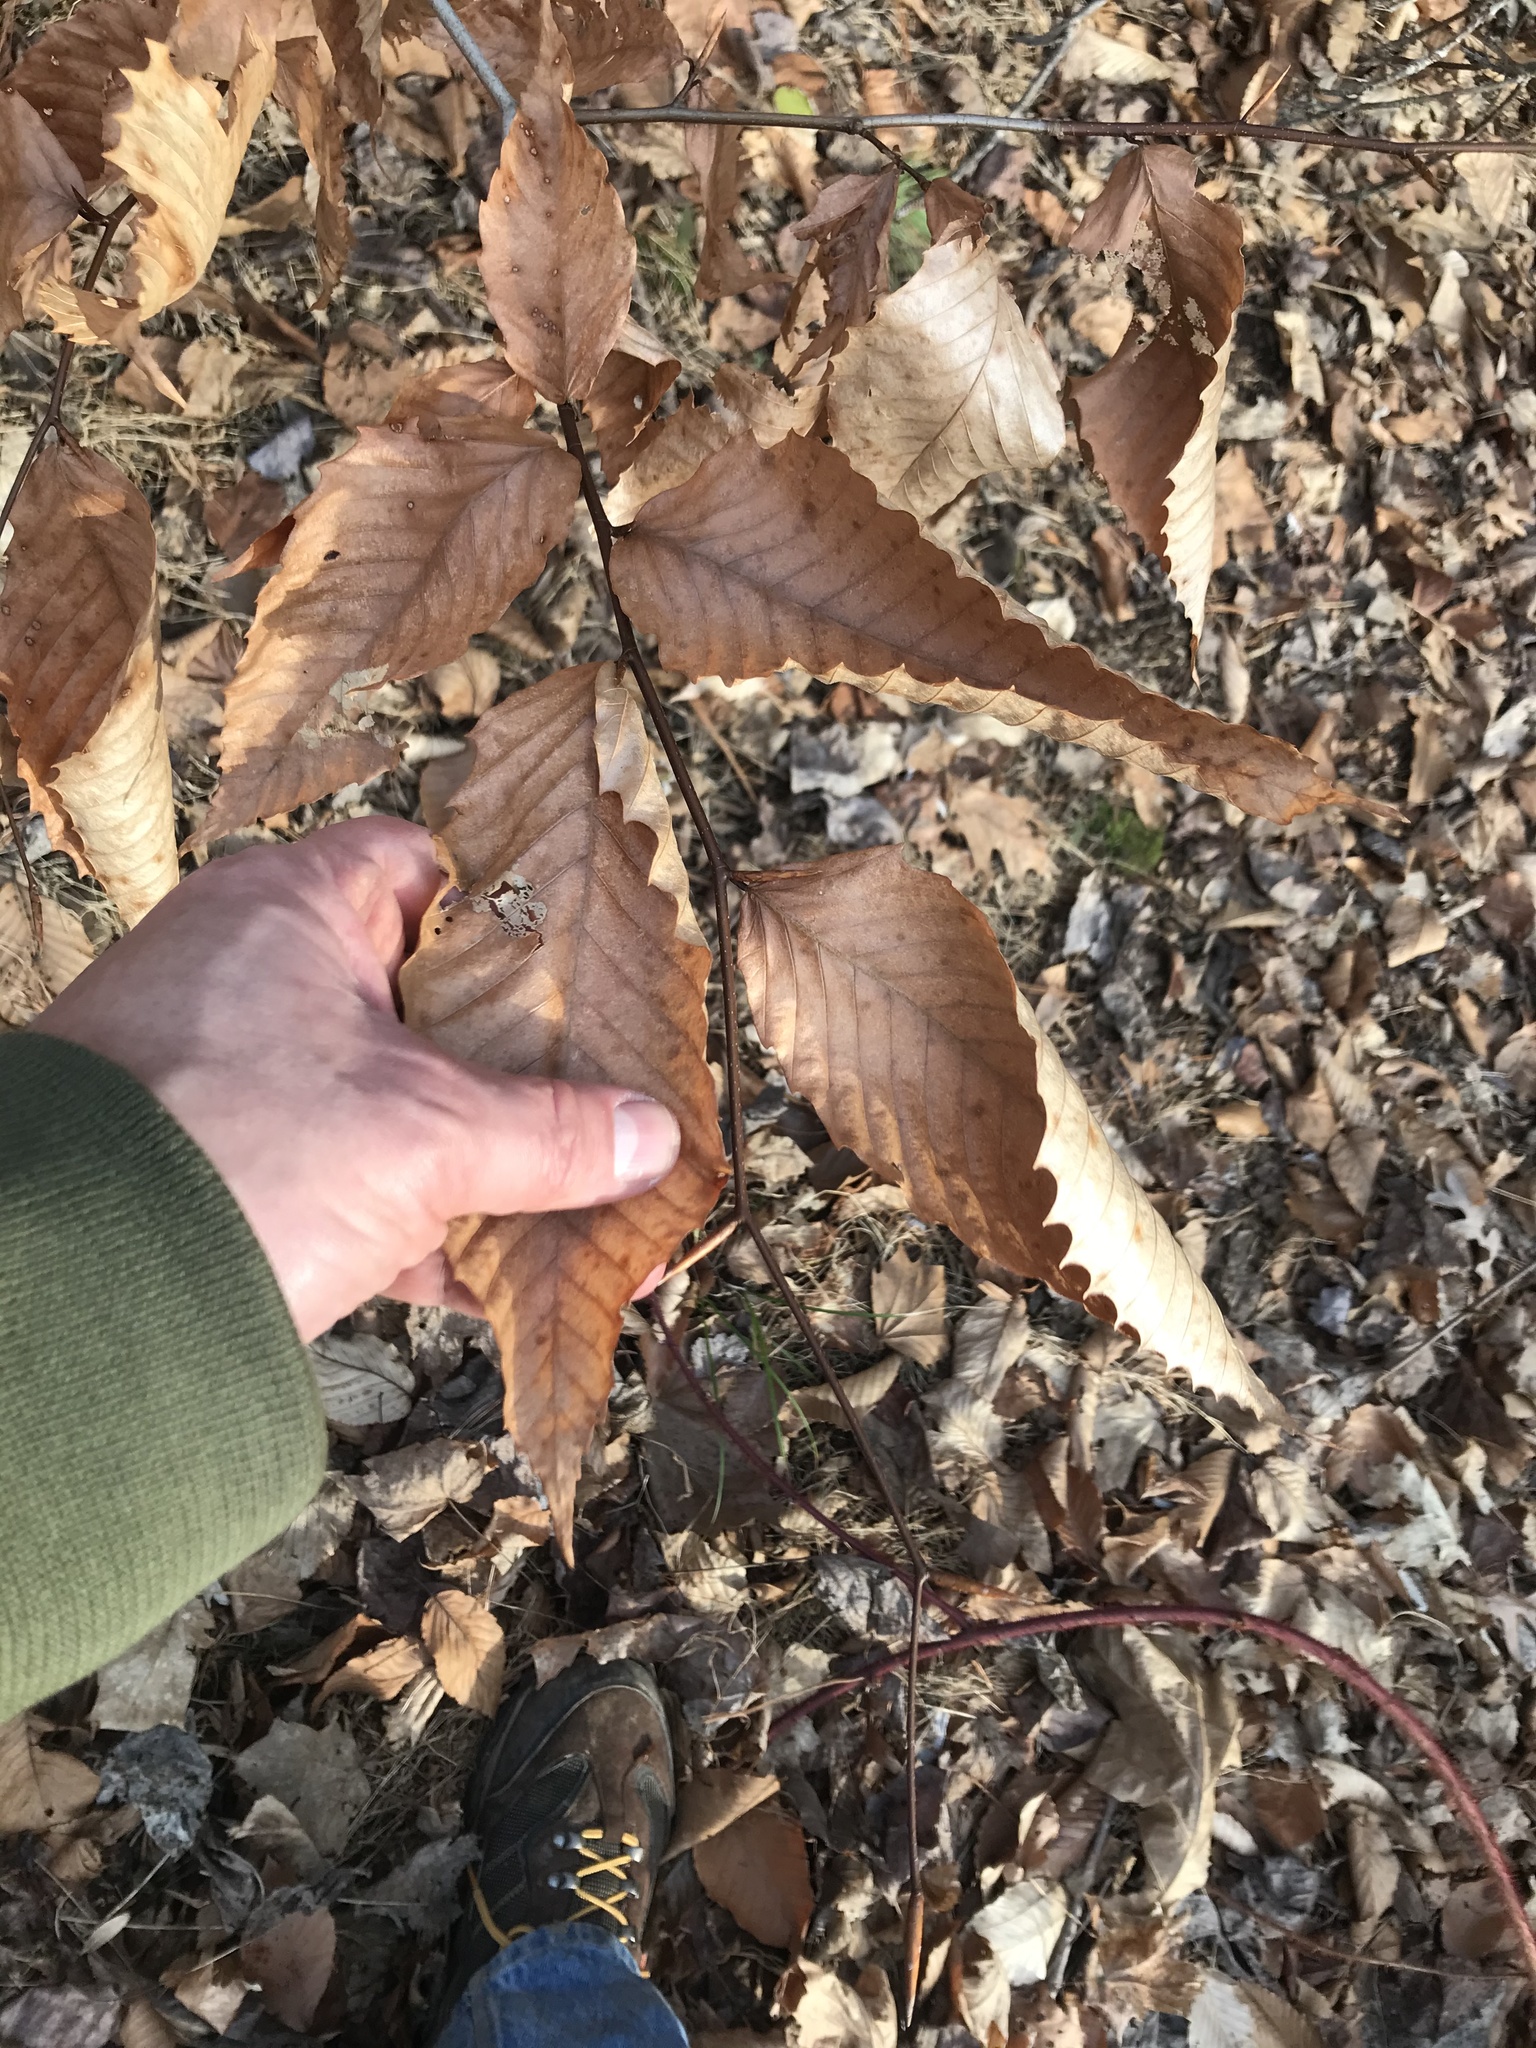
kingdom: Plantae
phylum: Tracheophyta
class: Magnoliopsida
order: Fagales
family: Fagaceae
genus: Fagus
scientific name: Fagus grandifolia
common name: American beech
